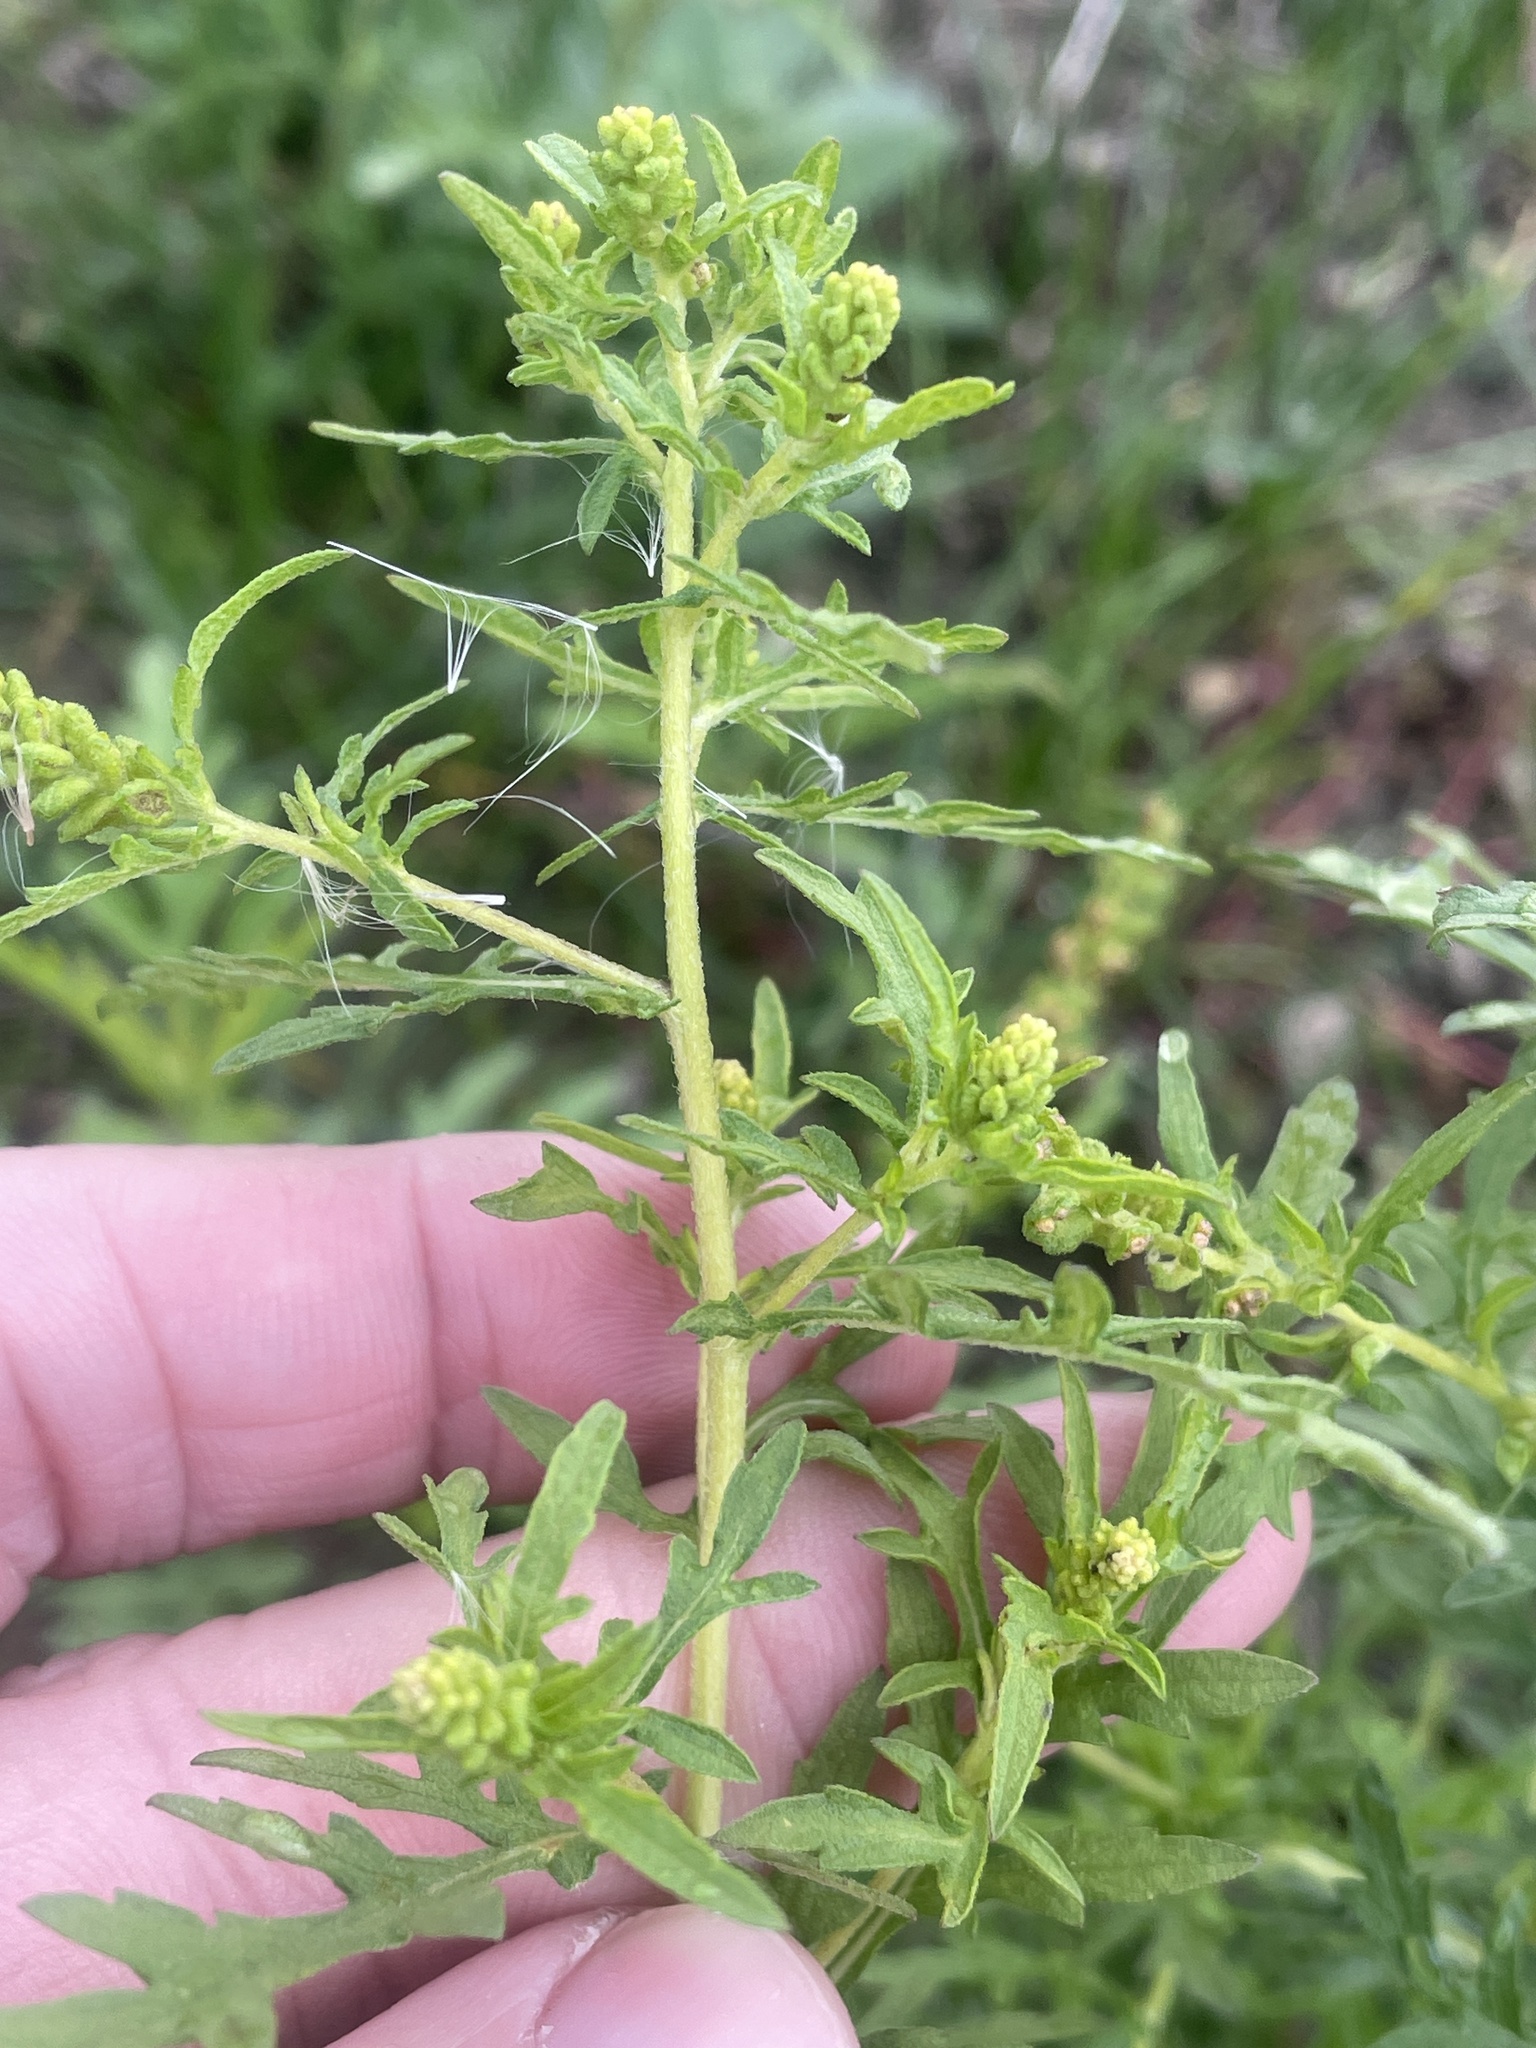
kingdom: Plantae
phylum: Tracheophyta
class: Magnoliopsida
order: Asterales
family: Asteraceae
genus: Ambrosia
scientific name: Ambrosia psilostachya
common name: Perennial ragweed
